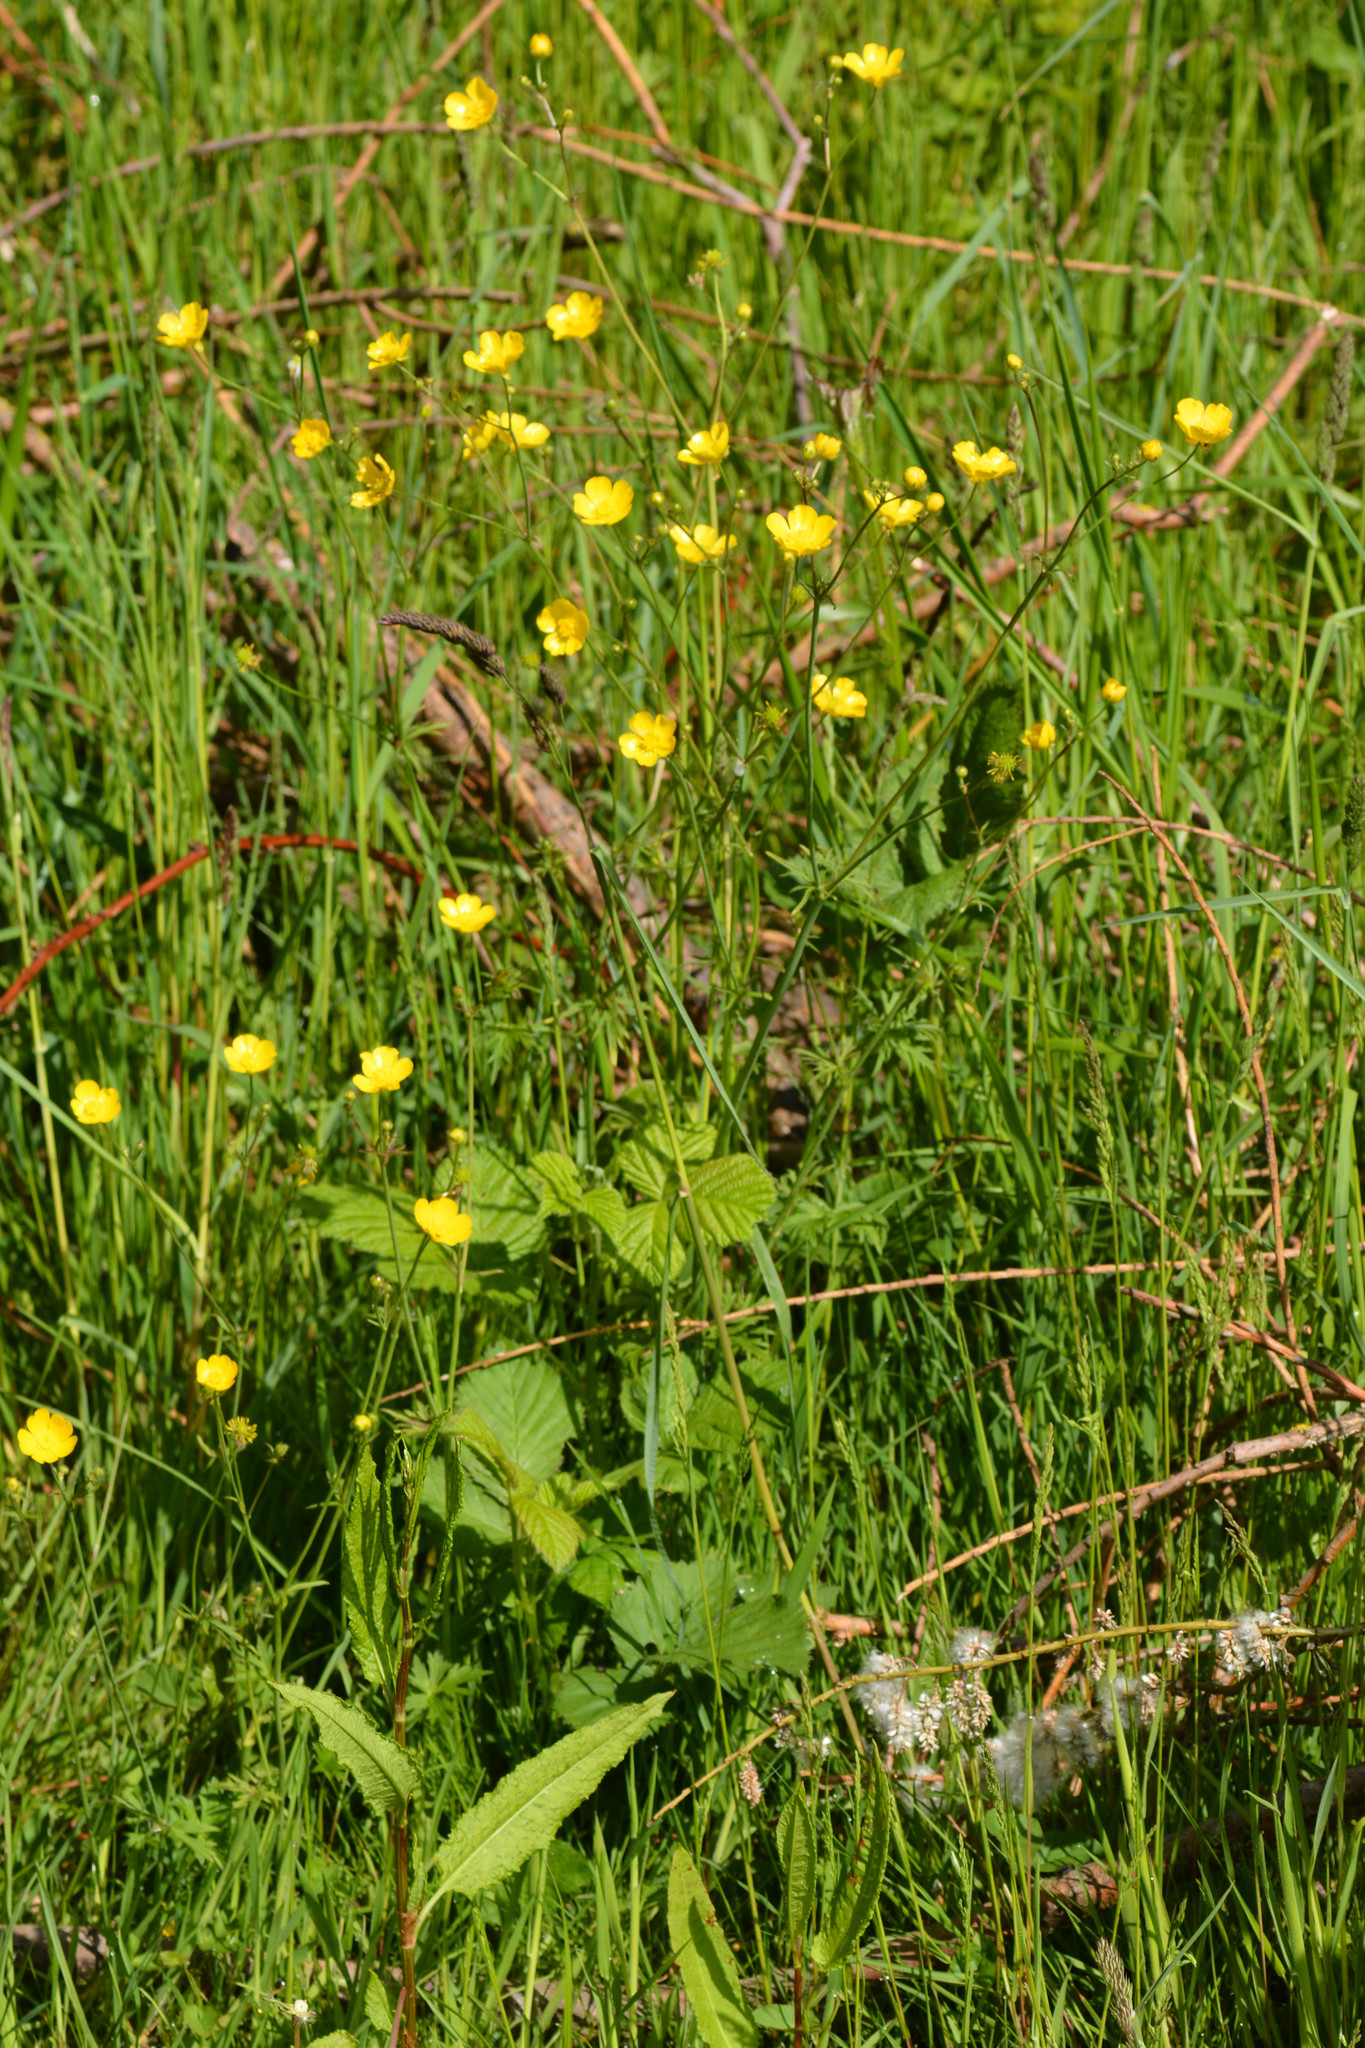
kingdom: Plantae
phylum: Tracheophyta
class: Magnoliopsida
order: Ranunculales
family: Ranunculaceae
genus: Ranunculus
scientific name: Ranunculus acris
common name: Meadow buttercup
